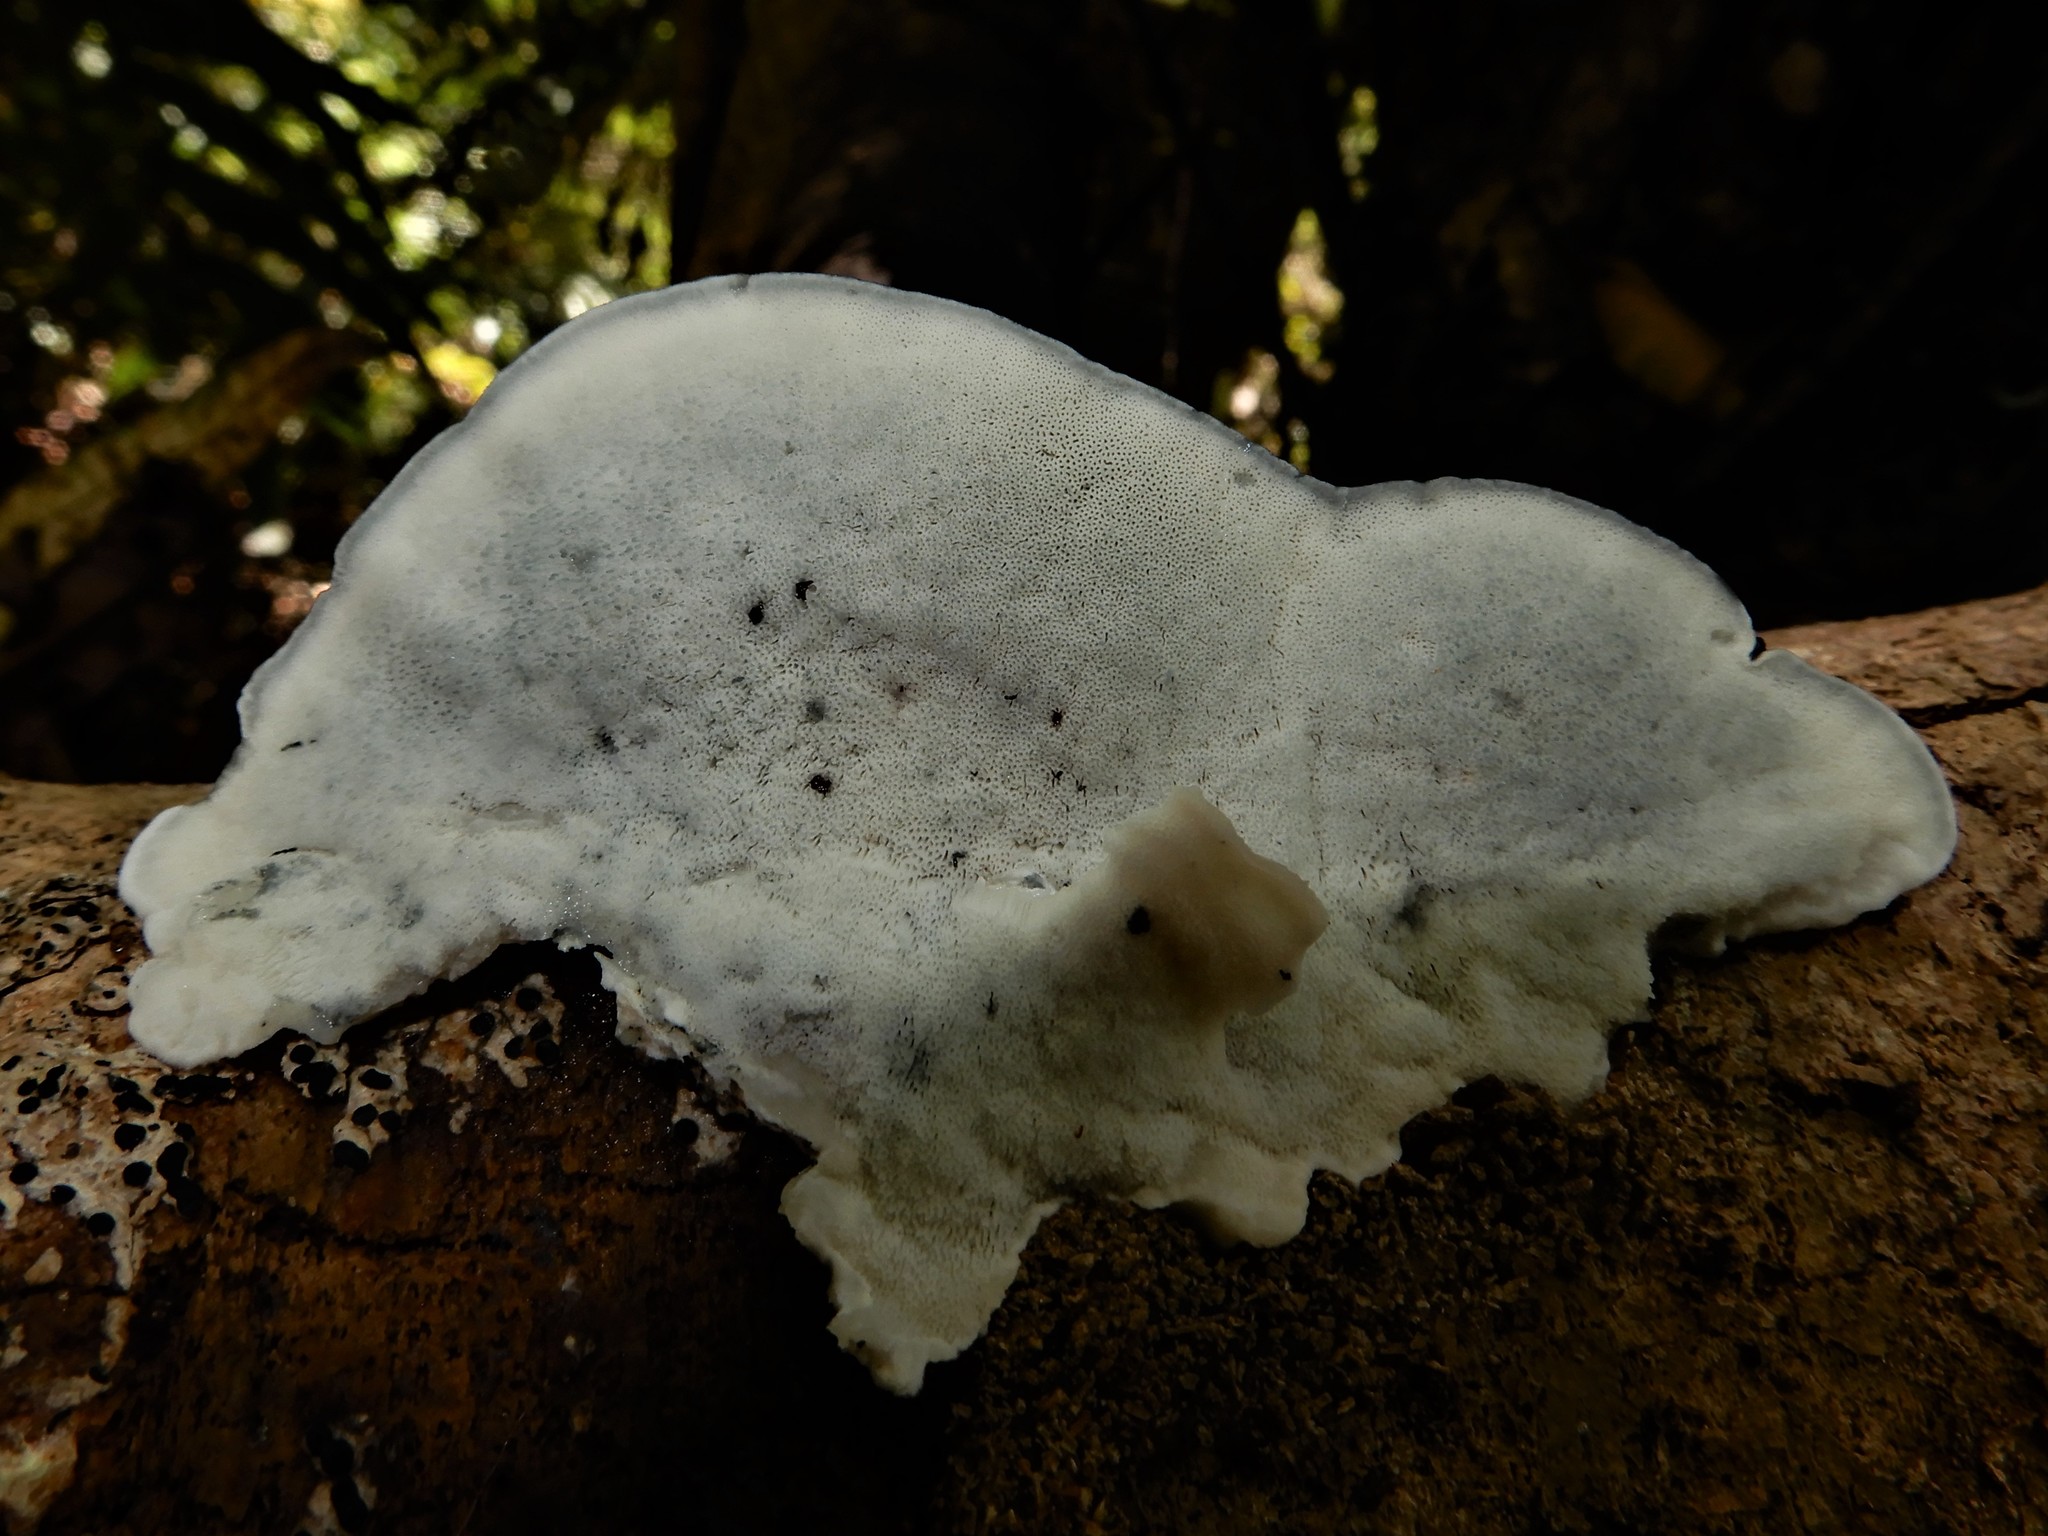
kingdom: Fungi
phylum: Basidiomycota
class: Agaricomycetes
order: Polyporales
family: Polyporaceae
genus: Cyanosporus
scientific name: Cyanosporus caesius
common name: Blue cheese polypore
